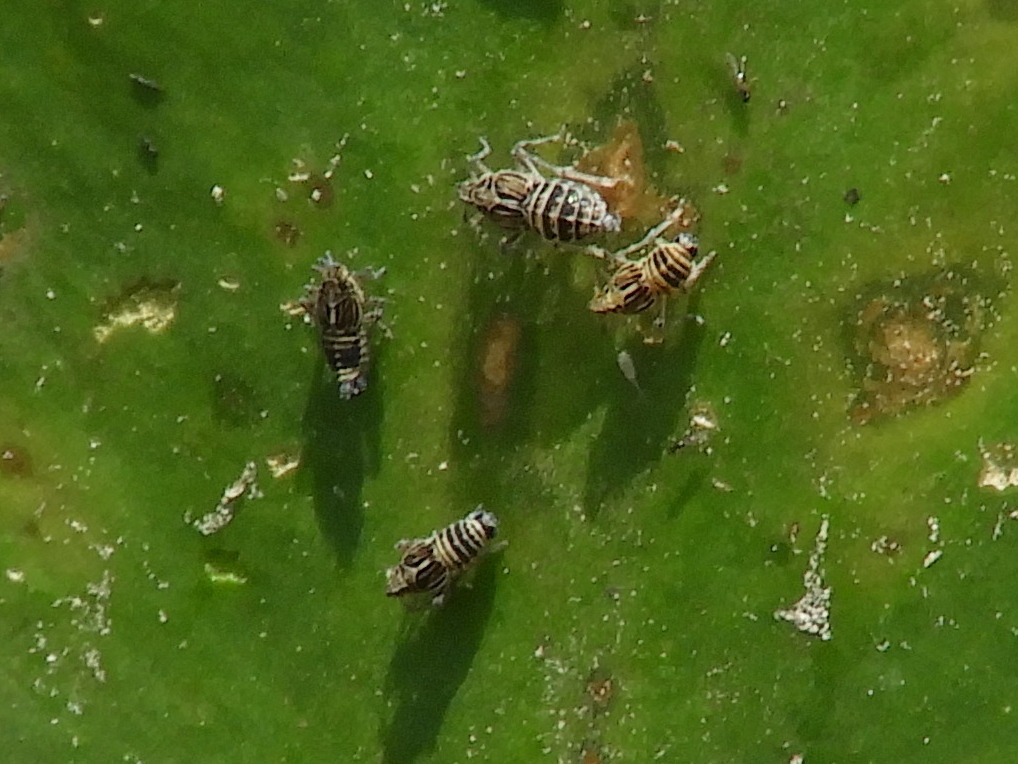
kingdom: Animalia
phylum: Arthropoda
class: Insecta
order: Hemiptera
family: Delphacidae
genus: Megamelus
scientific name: Megamelus davisi
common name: Planthopper
